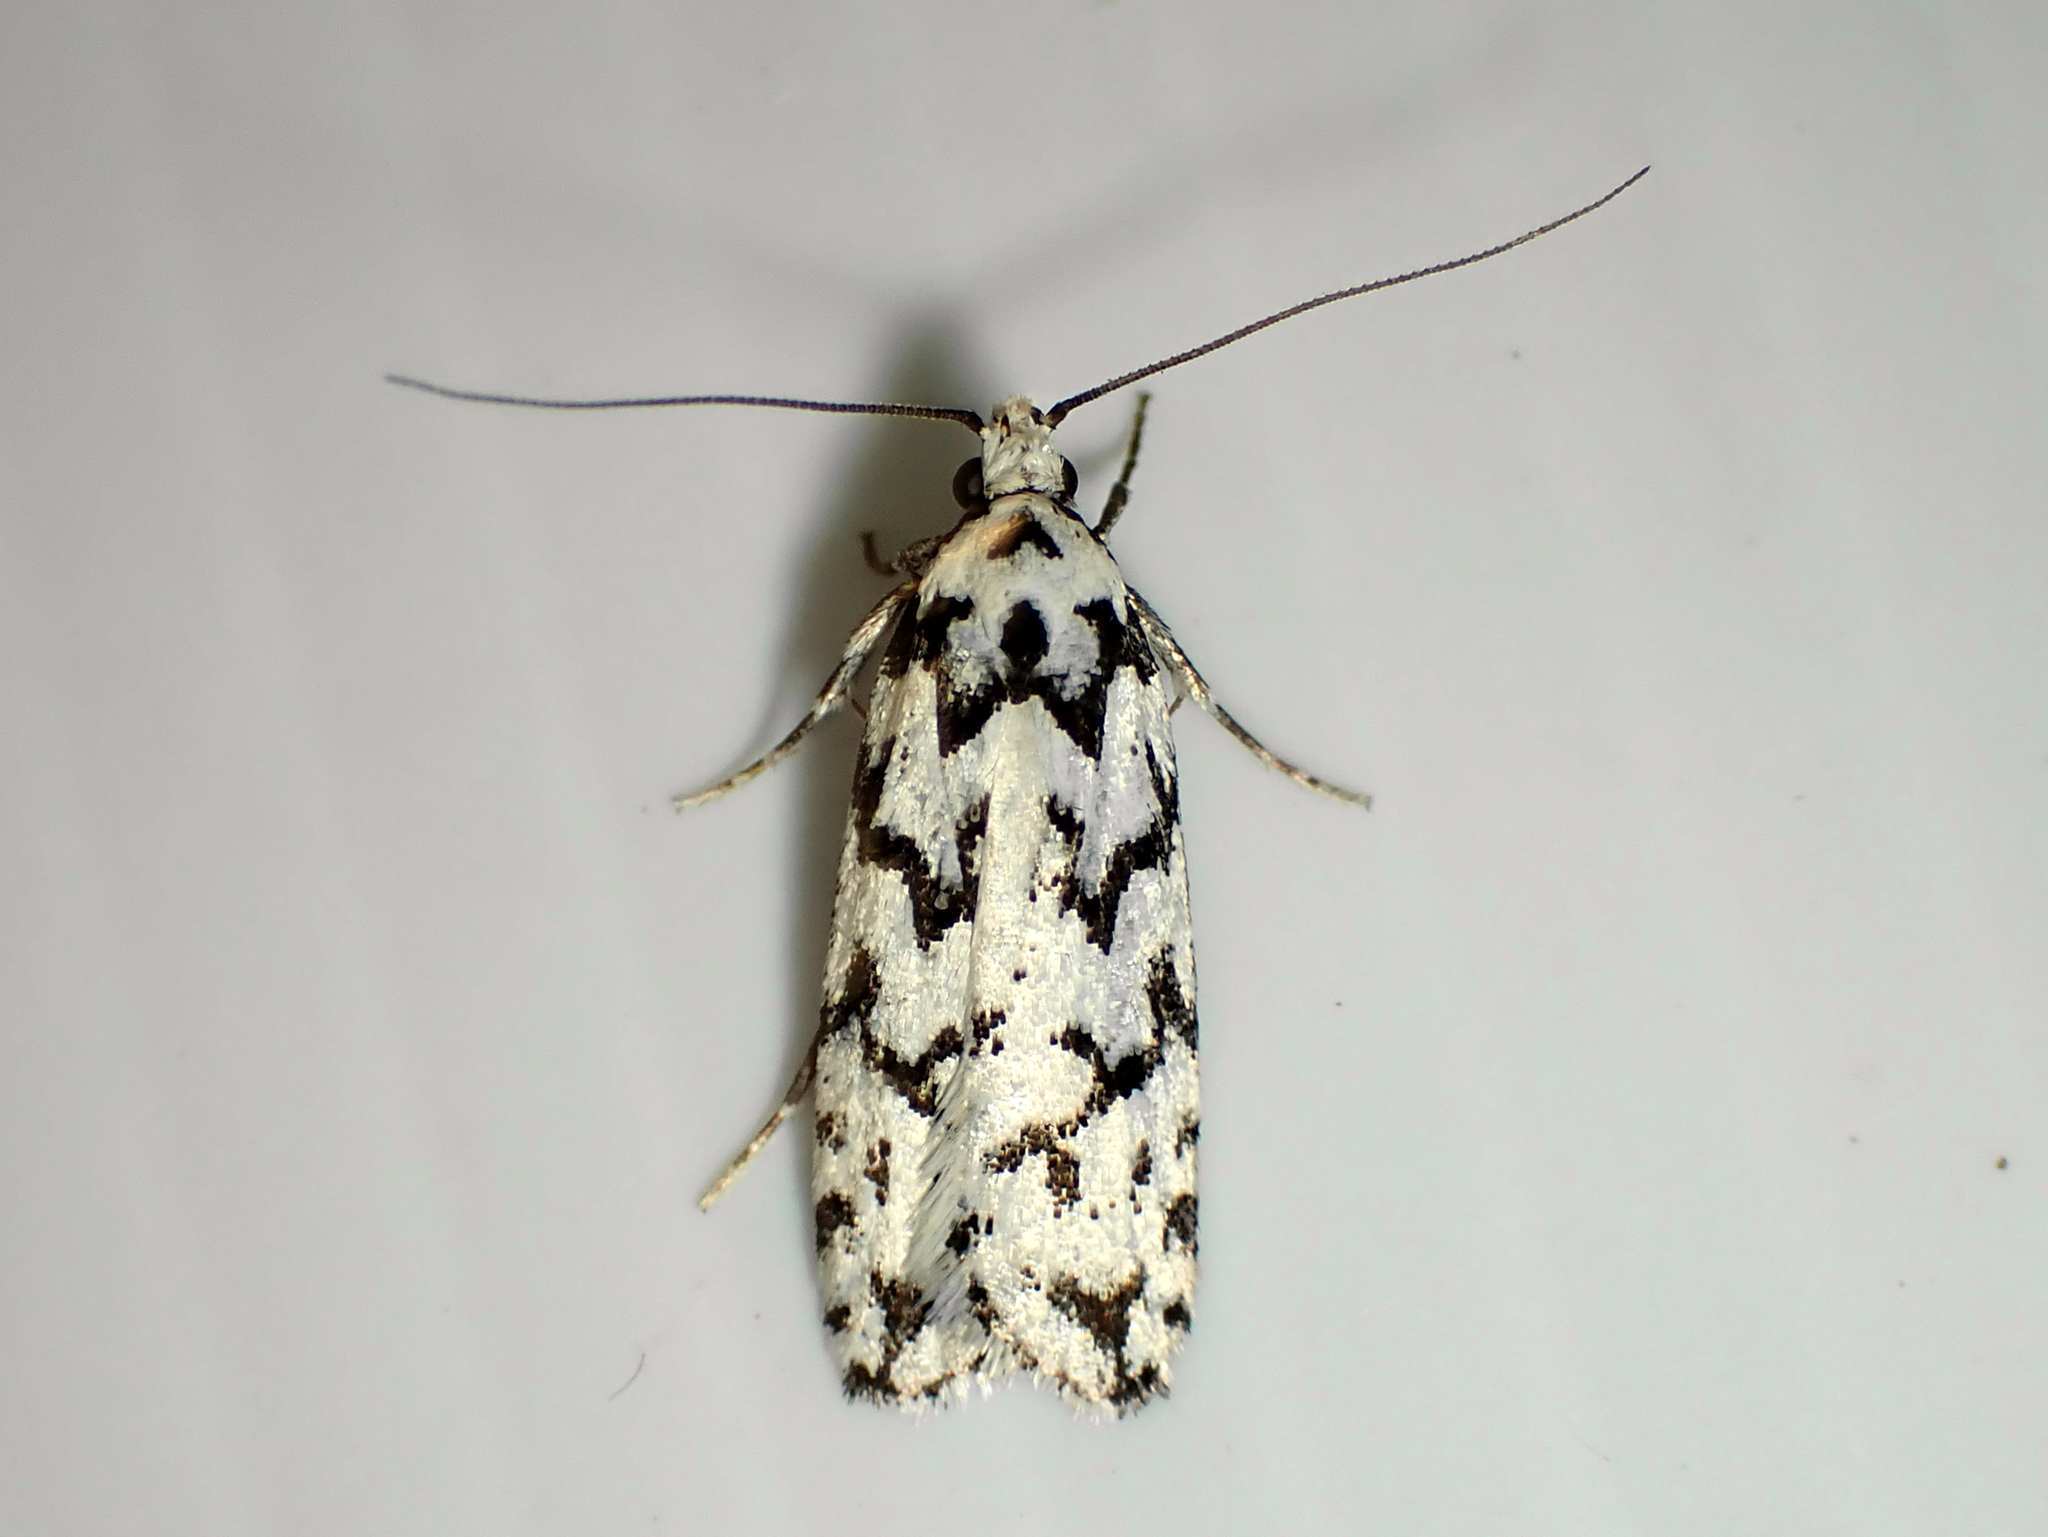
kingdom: Animalia
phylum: Arthropoda
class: Insecta
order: Lepidoptera
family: Oecophoridae
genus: Izatha
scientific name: Izatha katadiktya
